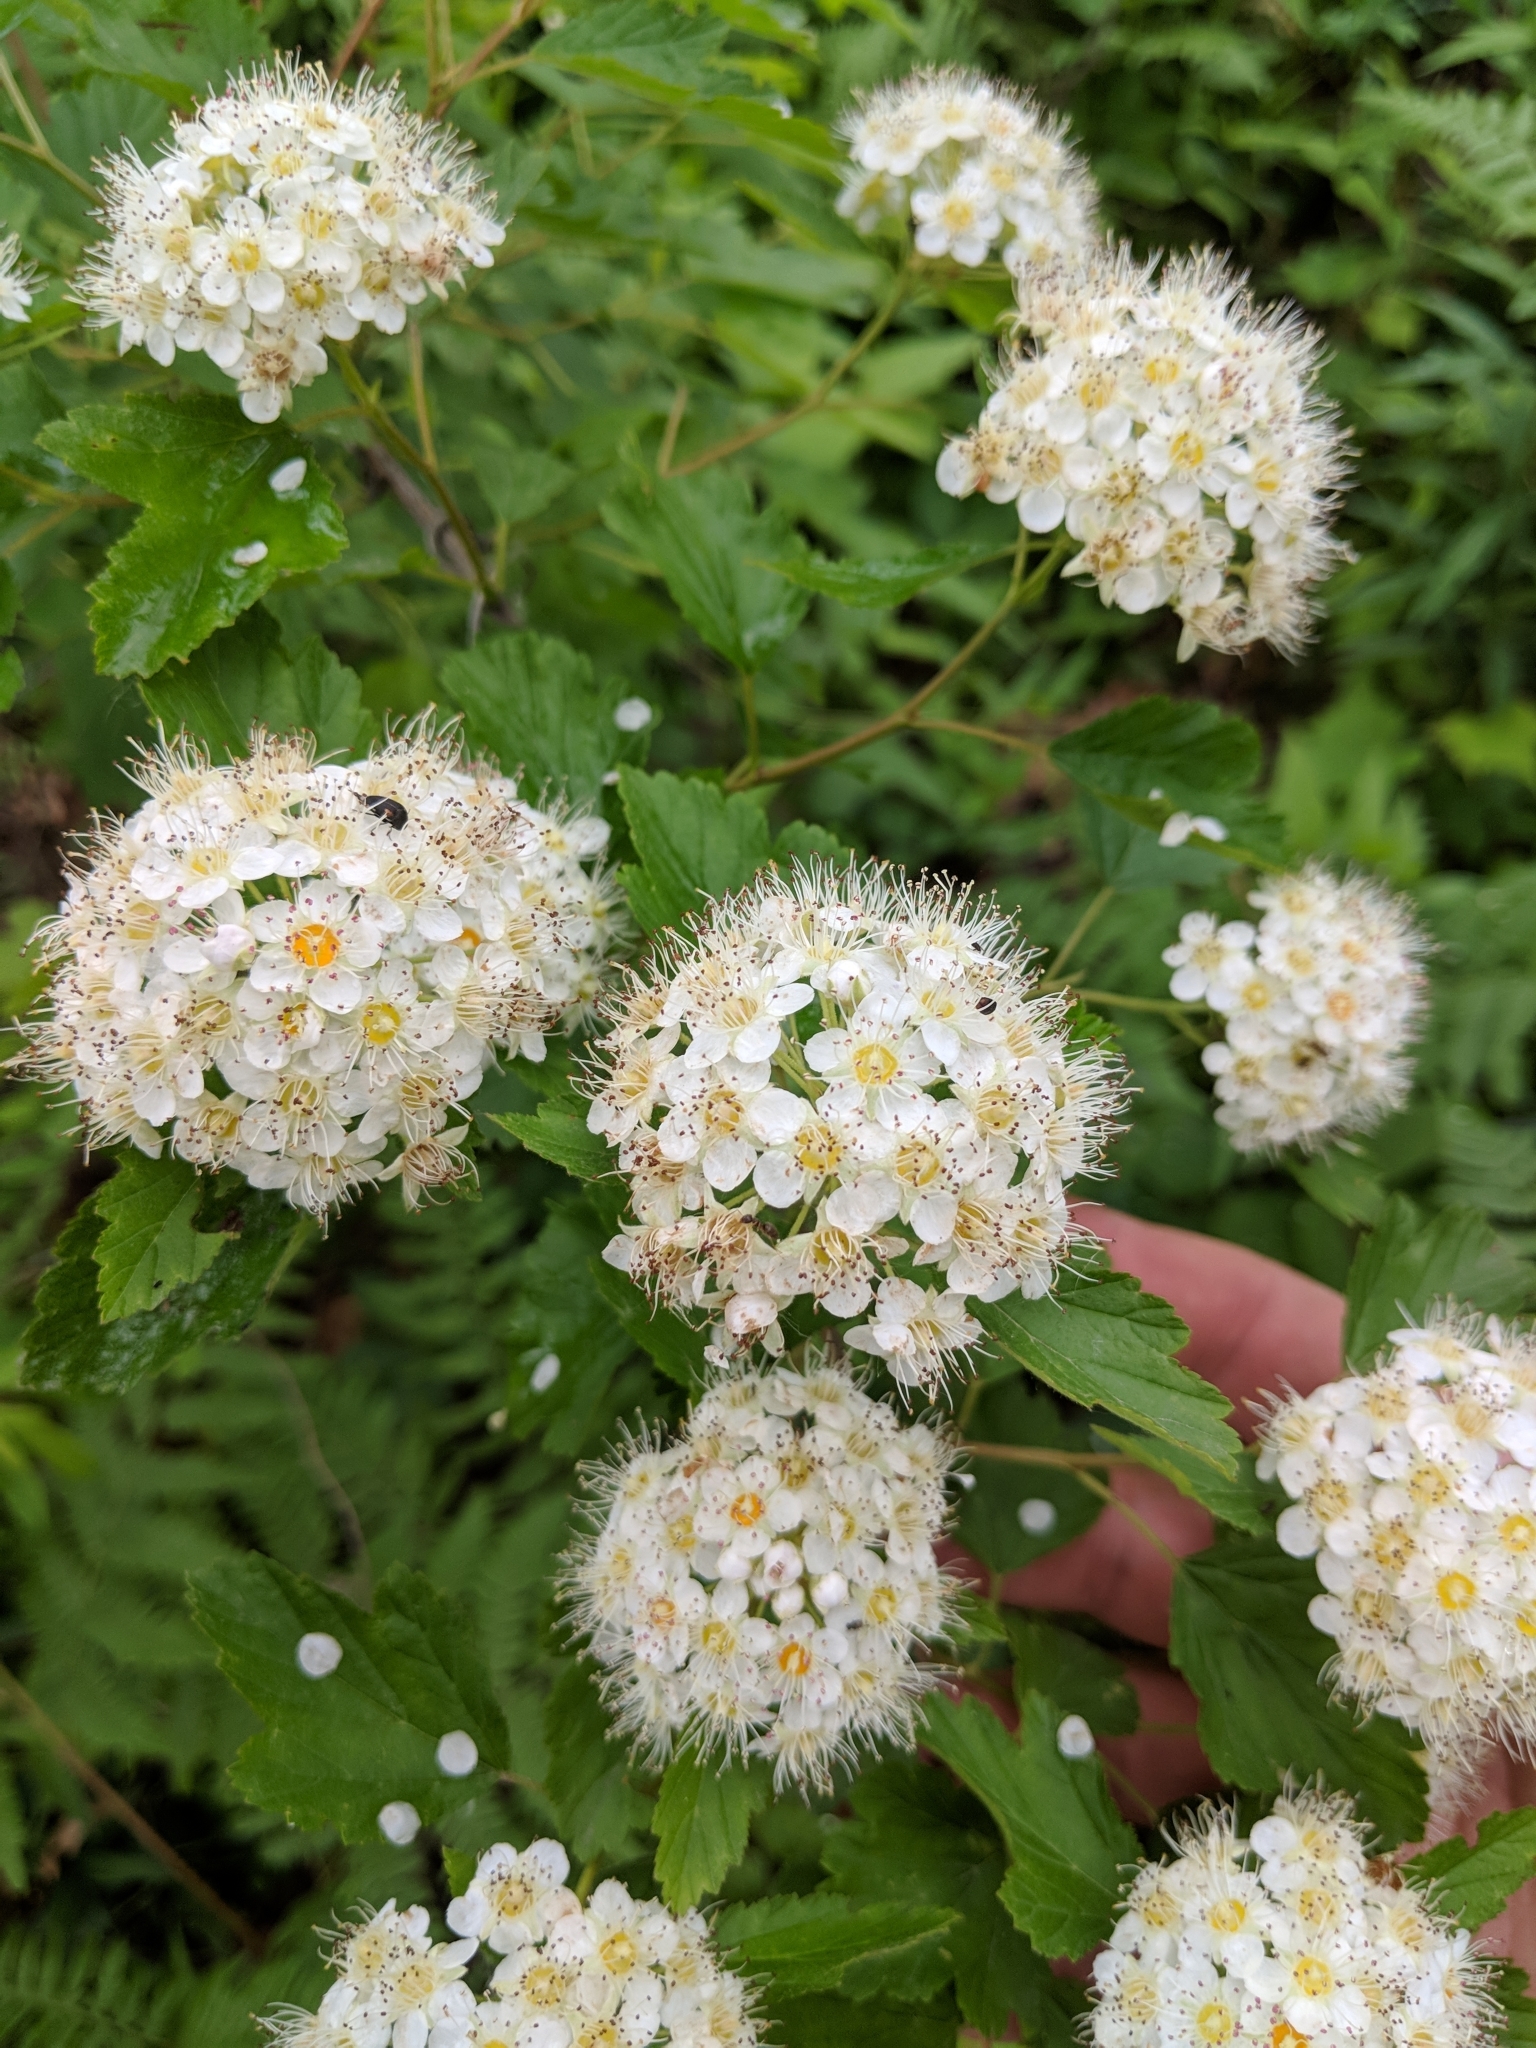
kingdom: Plantae
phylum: Tracheophyta
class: Magnoliopsida
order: Rosales
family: Rosaceae
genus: Physocarpus
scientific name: Physocarpus opulifolius
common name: Ninebark
